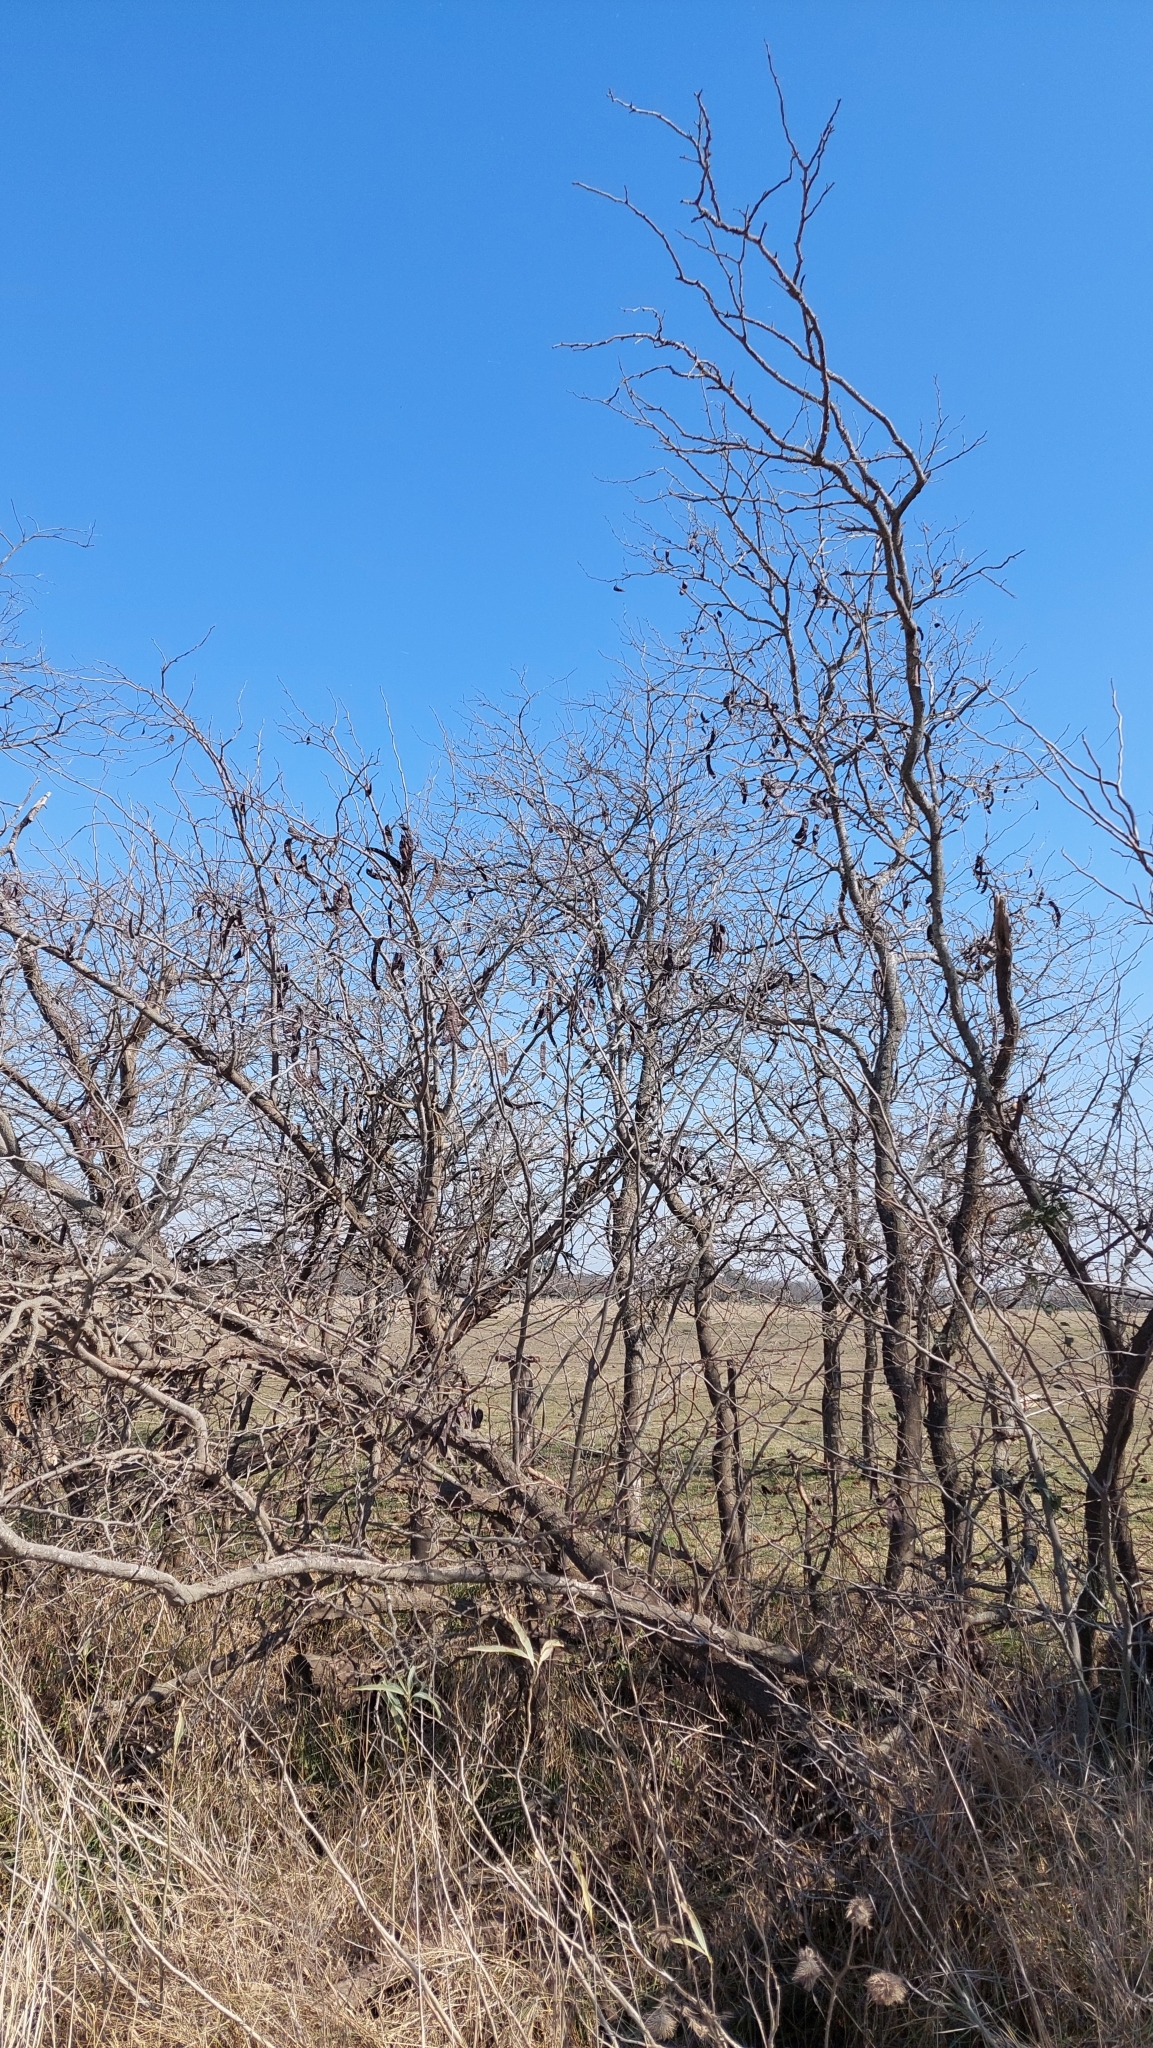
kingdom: Plantae
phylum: Tracheophyta
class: Magnoliopsida
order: Fabales
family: Fabaceae
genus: Gleditsia
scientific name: Gleditsia triacanthos
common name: Common honeylocust
